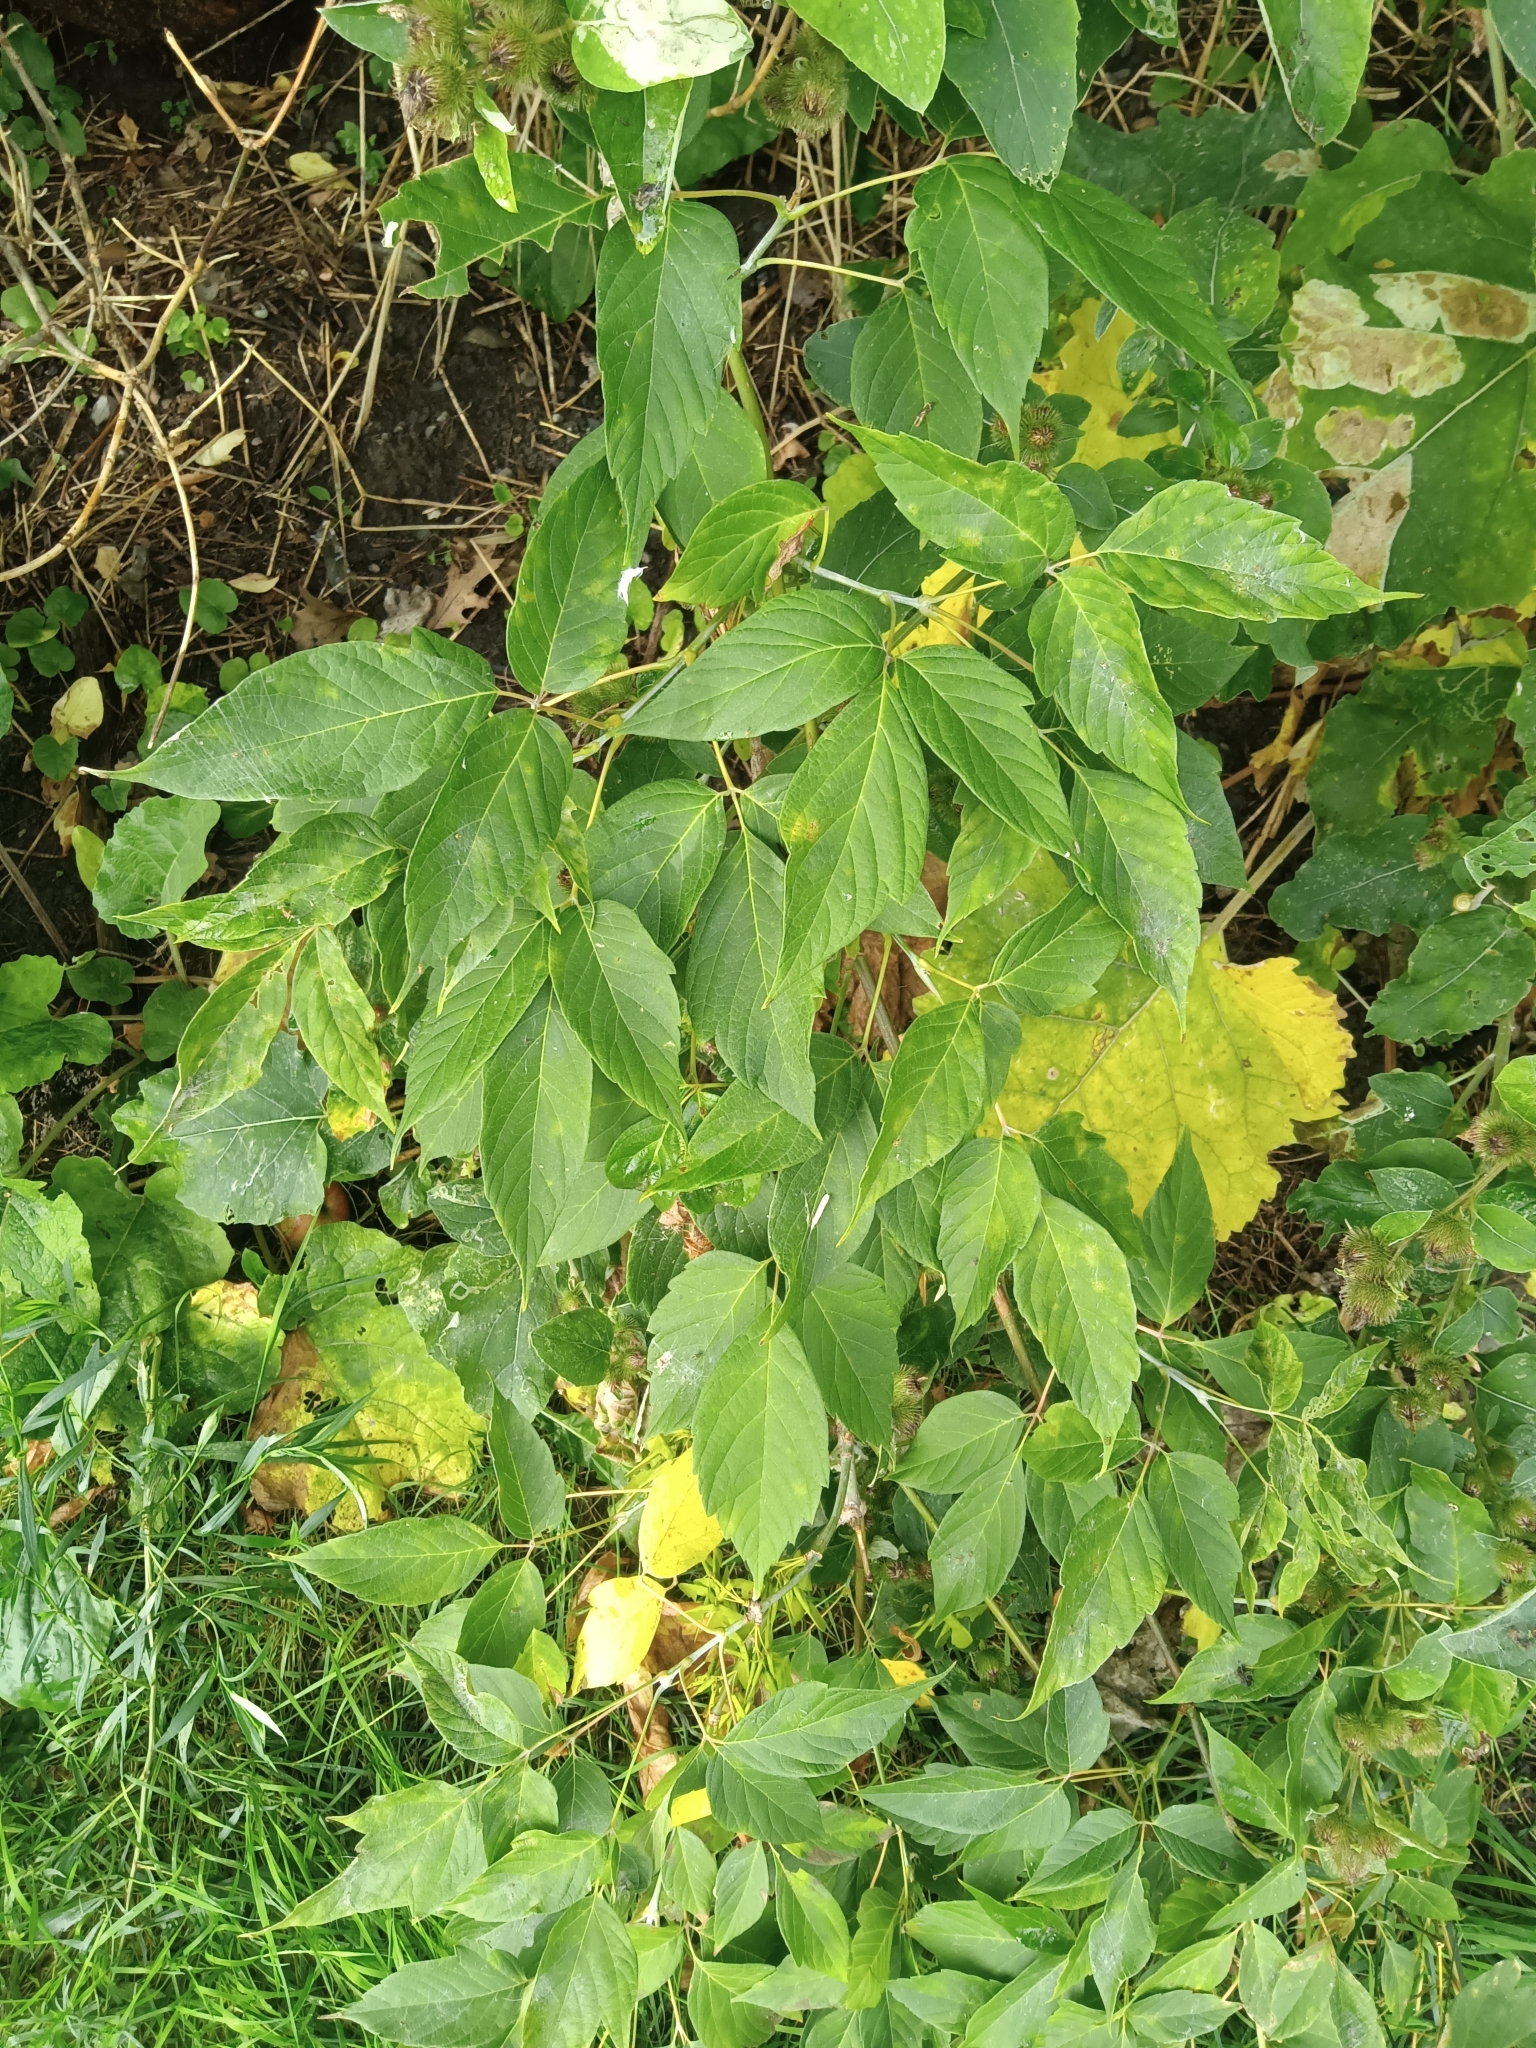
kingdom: Plantae
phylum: Tracheophyta
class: Magnoliopsida
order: Sapindales
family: Sapindaceae
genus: Acer
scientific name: Acer negundo
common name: Ashleaf maple
